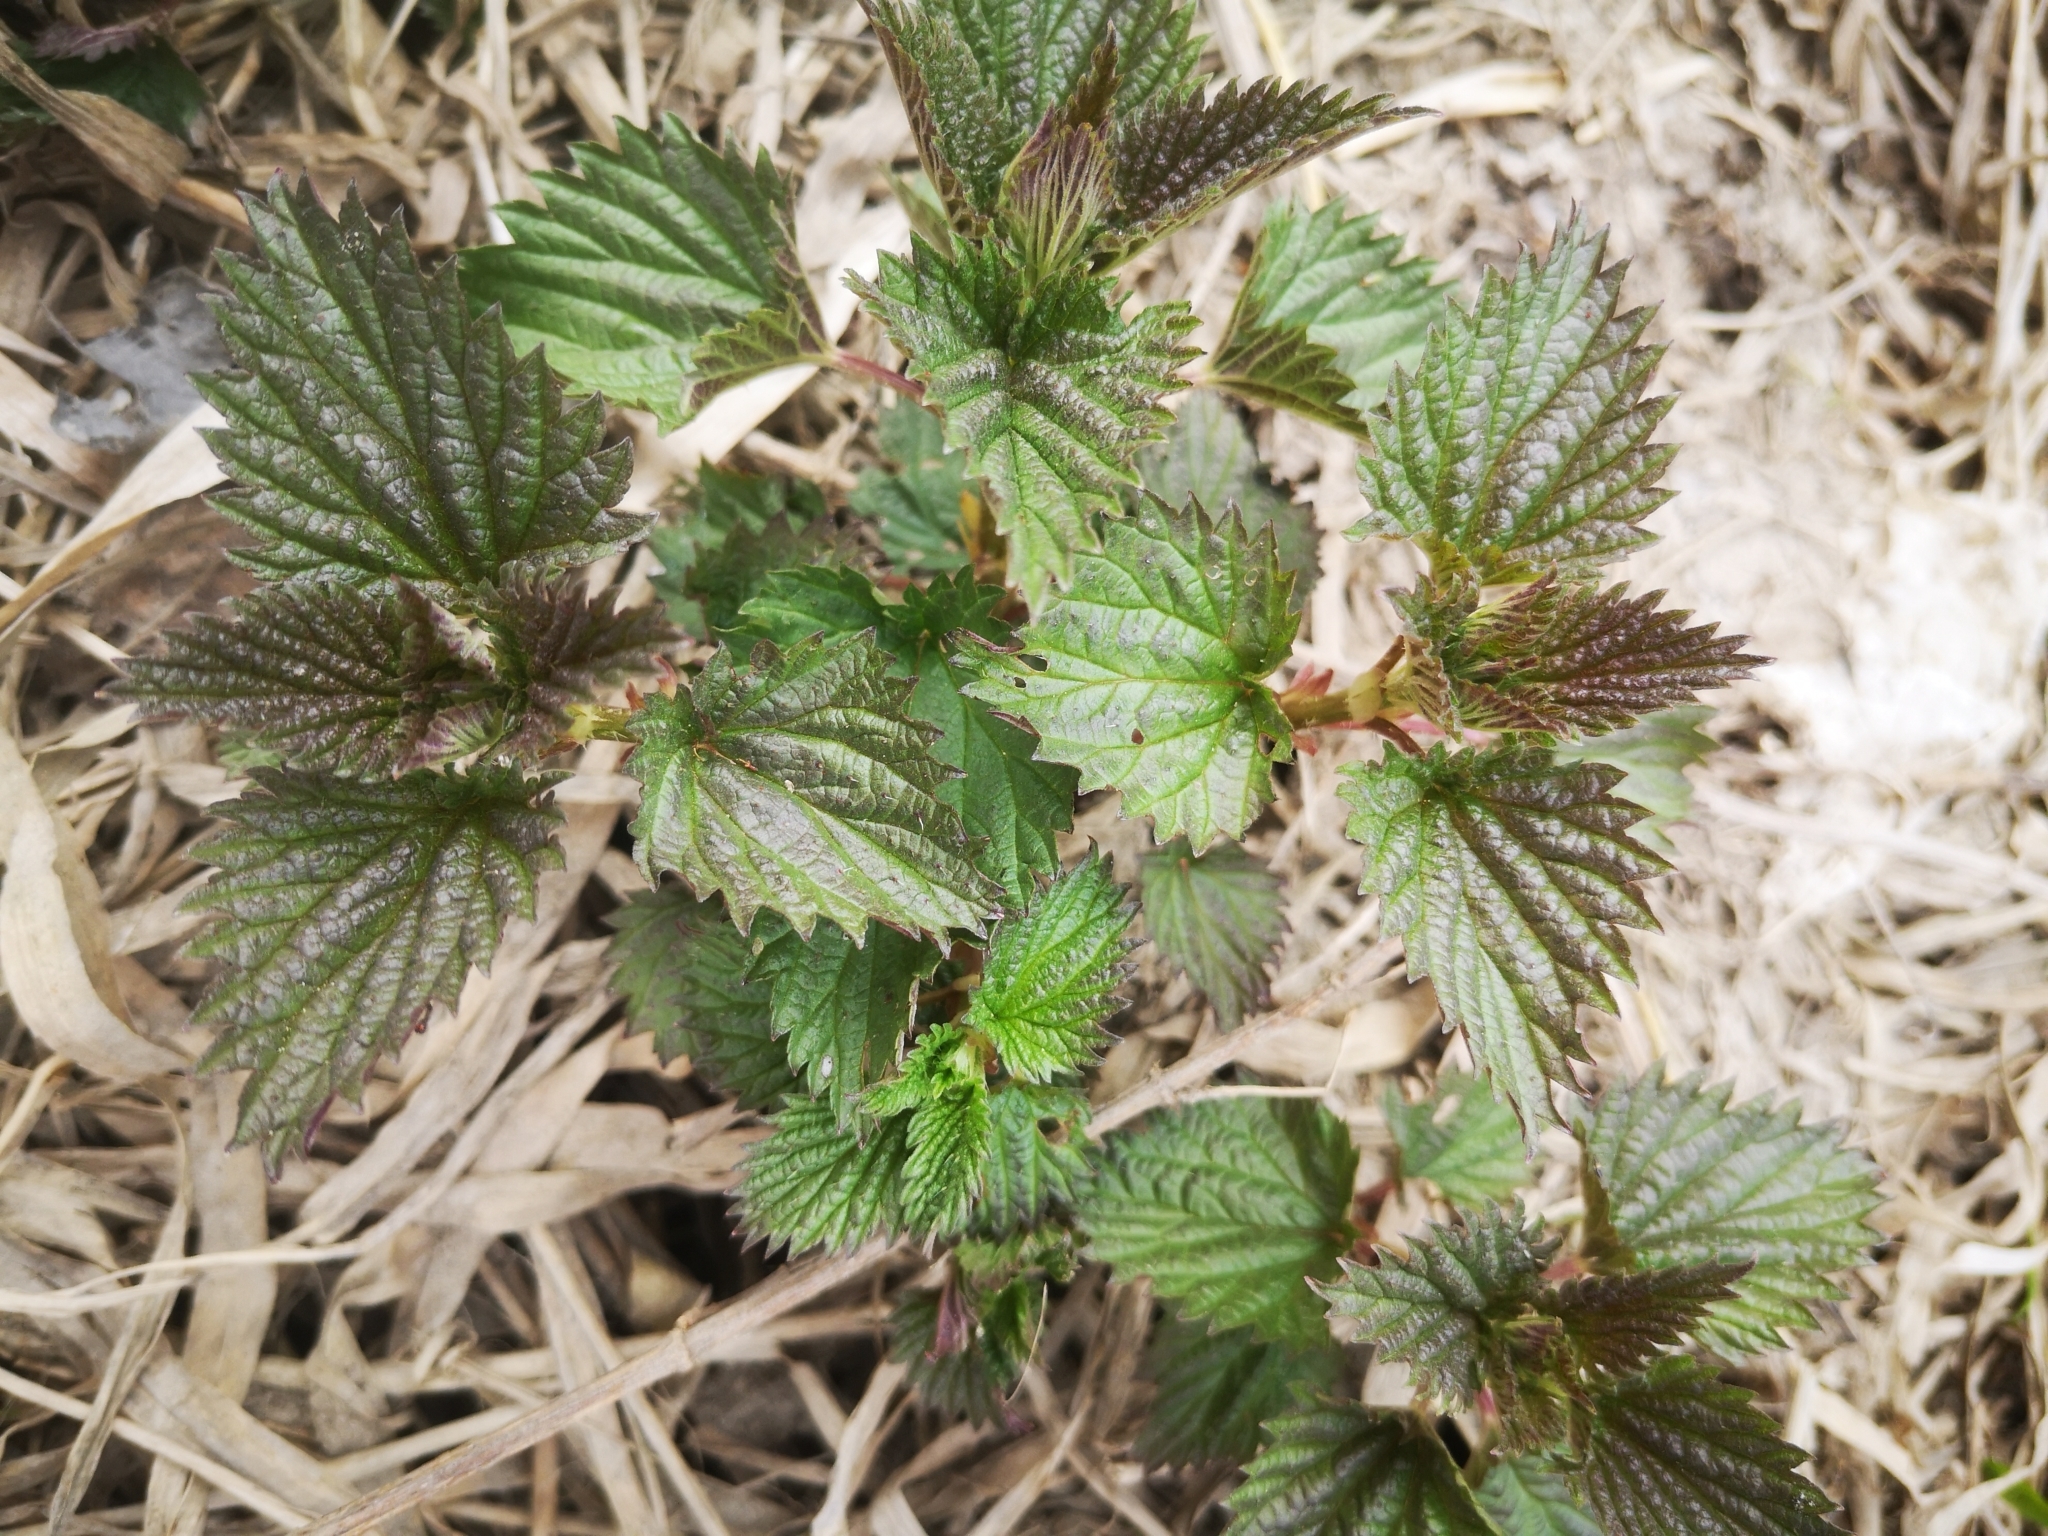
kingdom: Plantae
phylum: Tracheophyta
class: Magnoliopsida
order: Rosales
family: Urticaceae
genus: Urtica
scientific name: Urtica dioica
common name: Common nettle
